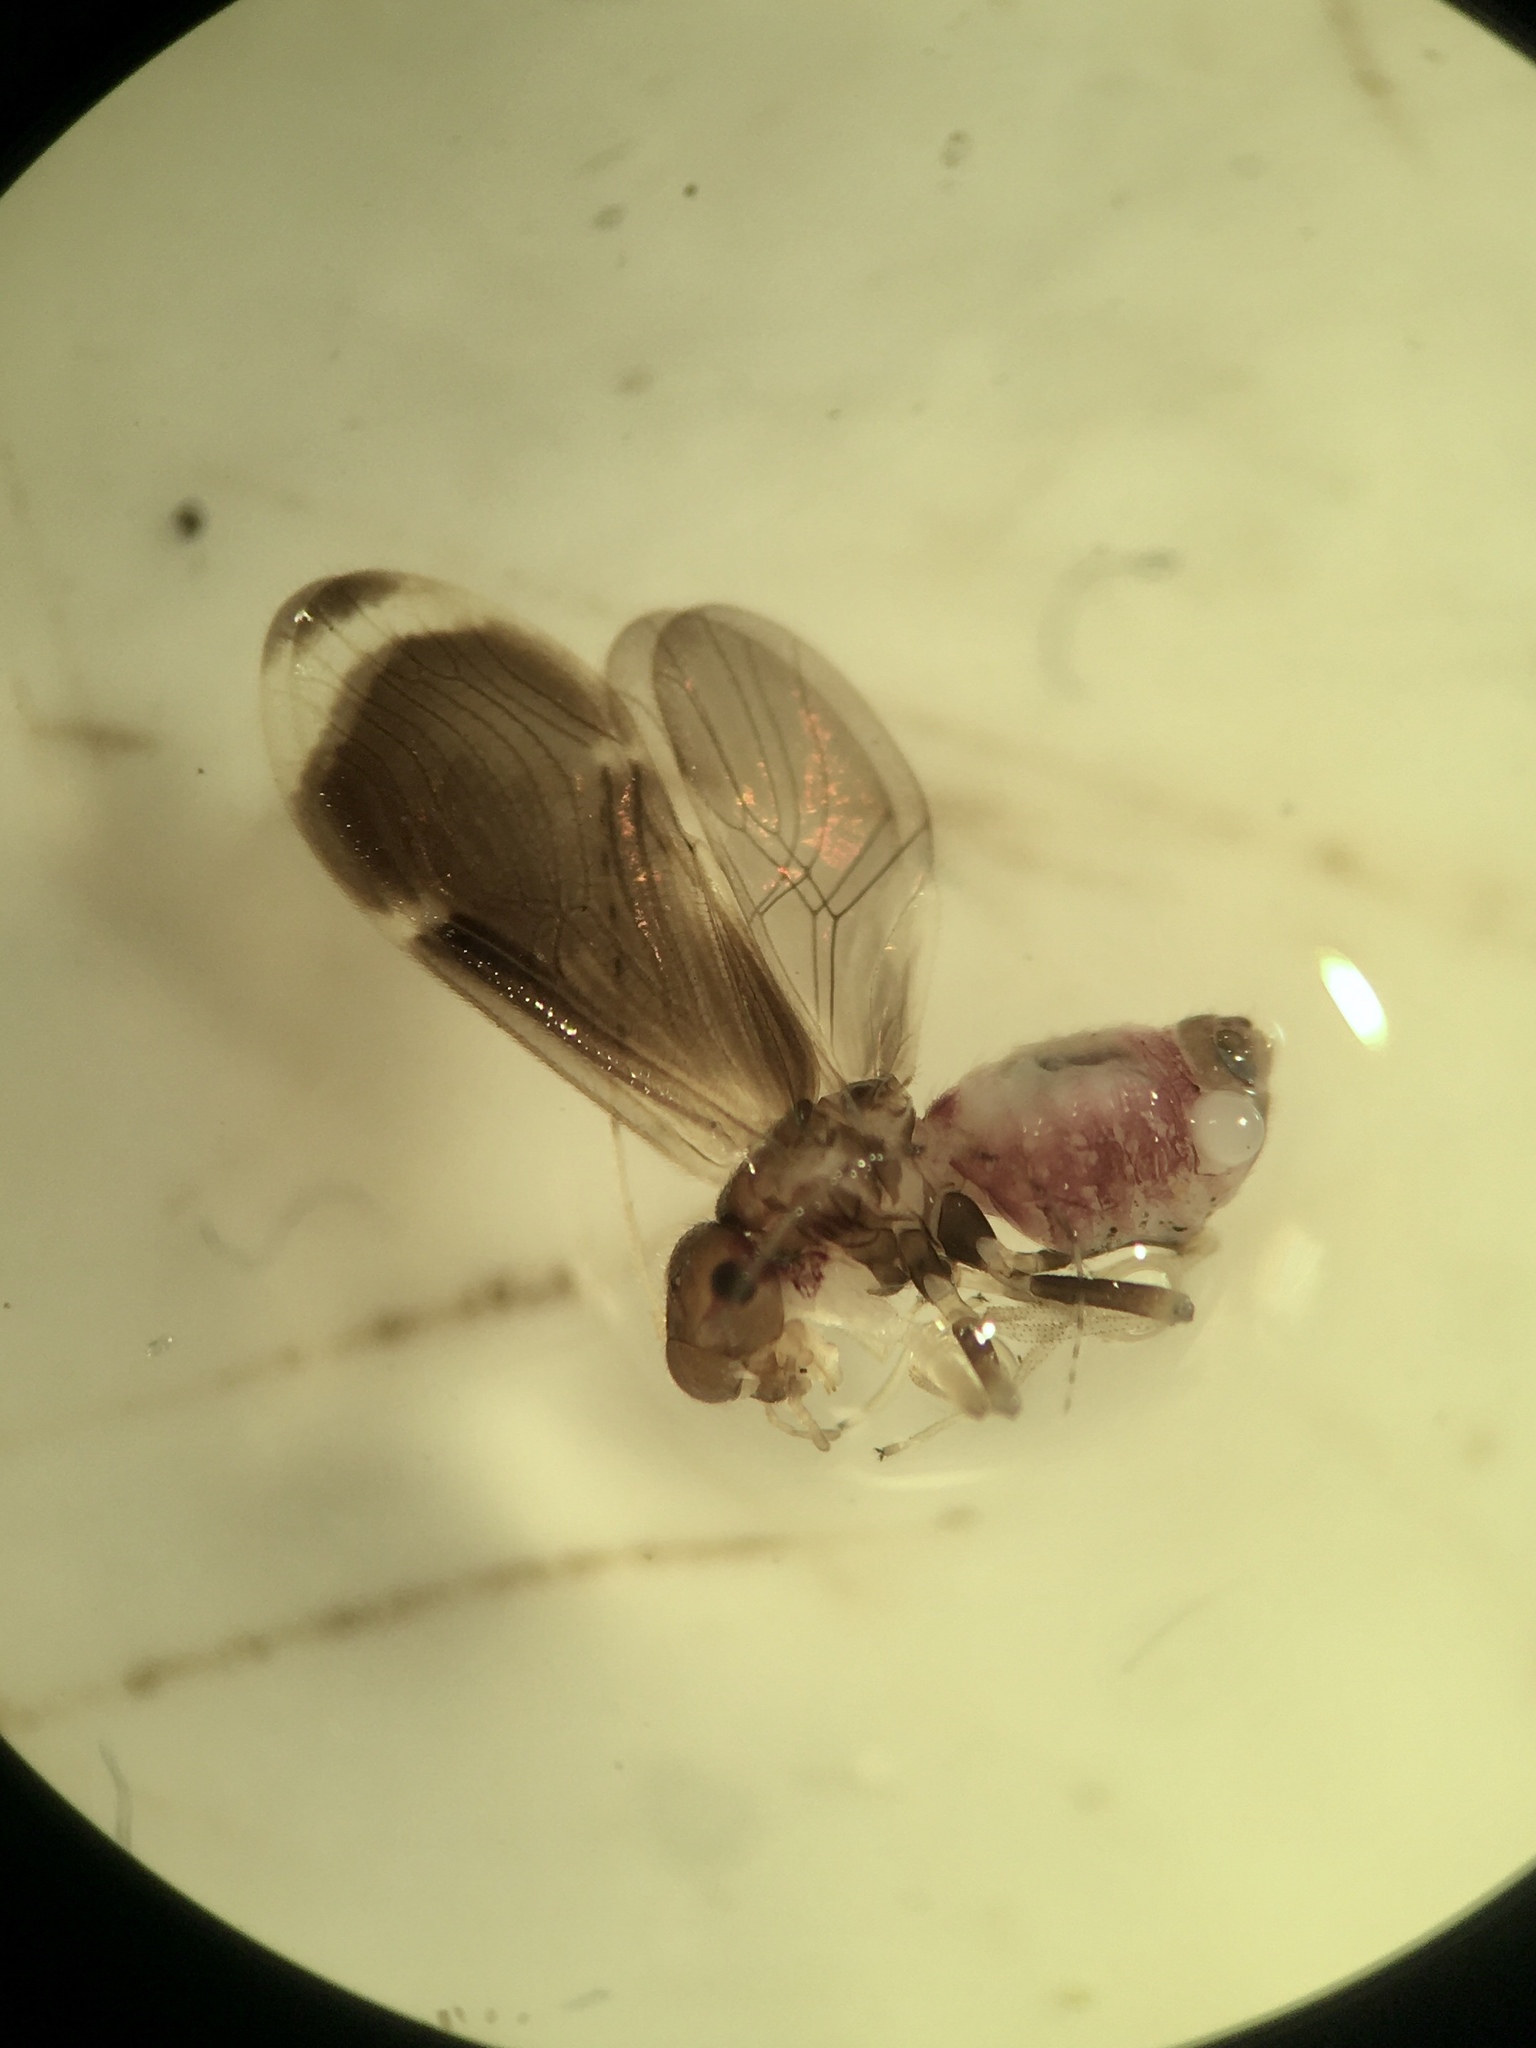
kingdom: Animalia
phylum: Arthropoda
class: Insecta
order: Psocodea
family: Amphipsocidae
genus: Polypsocus
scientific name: Polypsocus corruptus
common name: Corrupt barklouse
